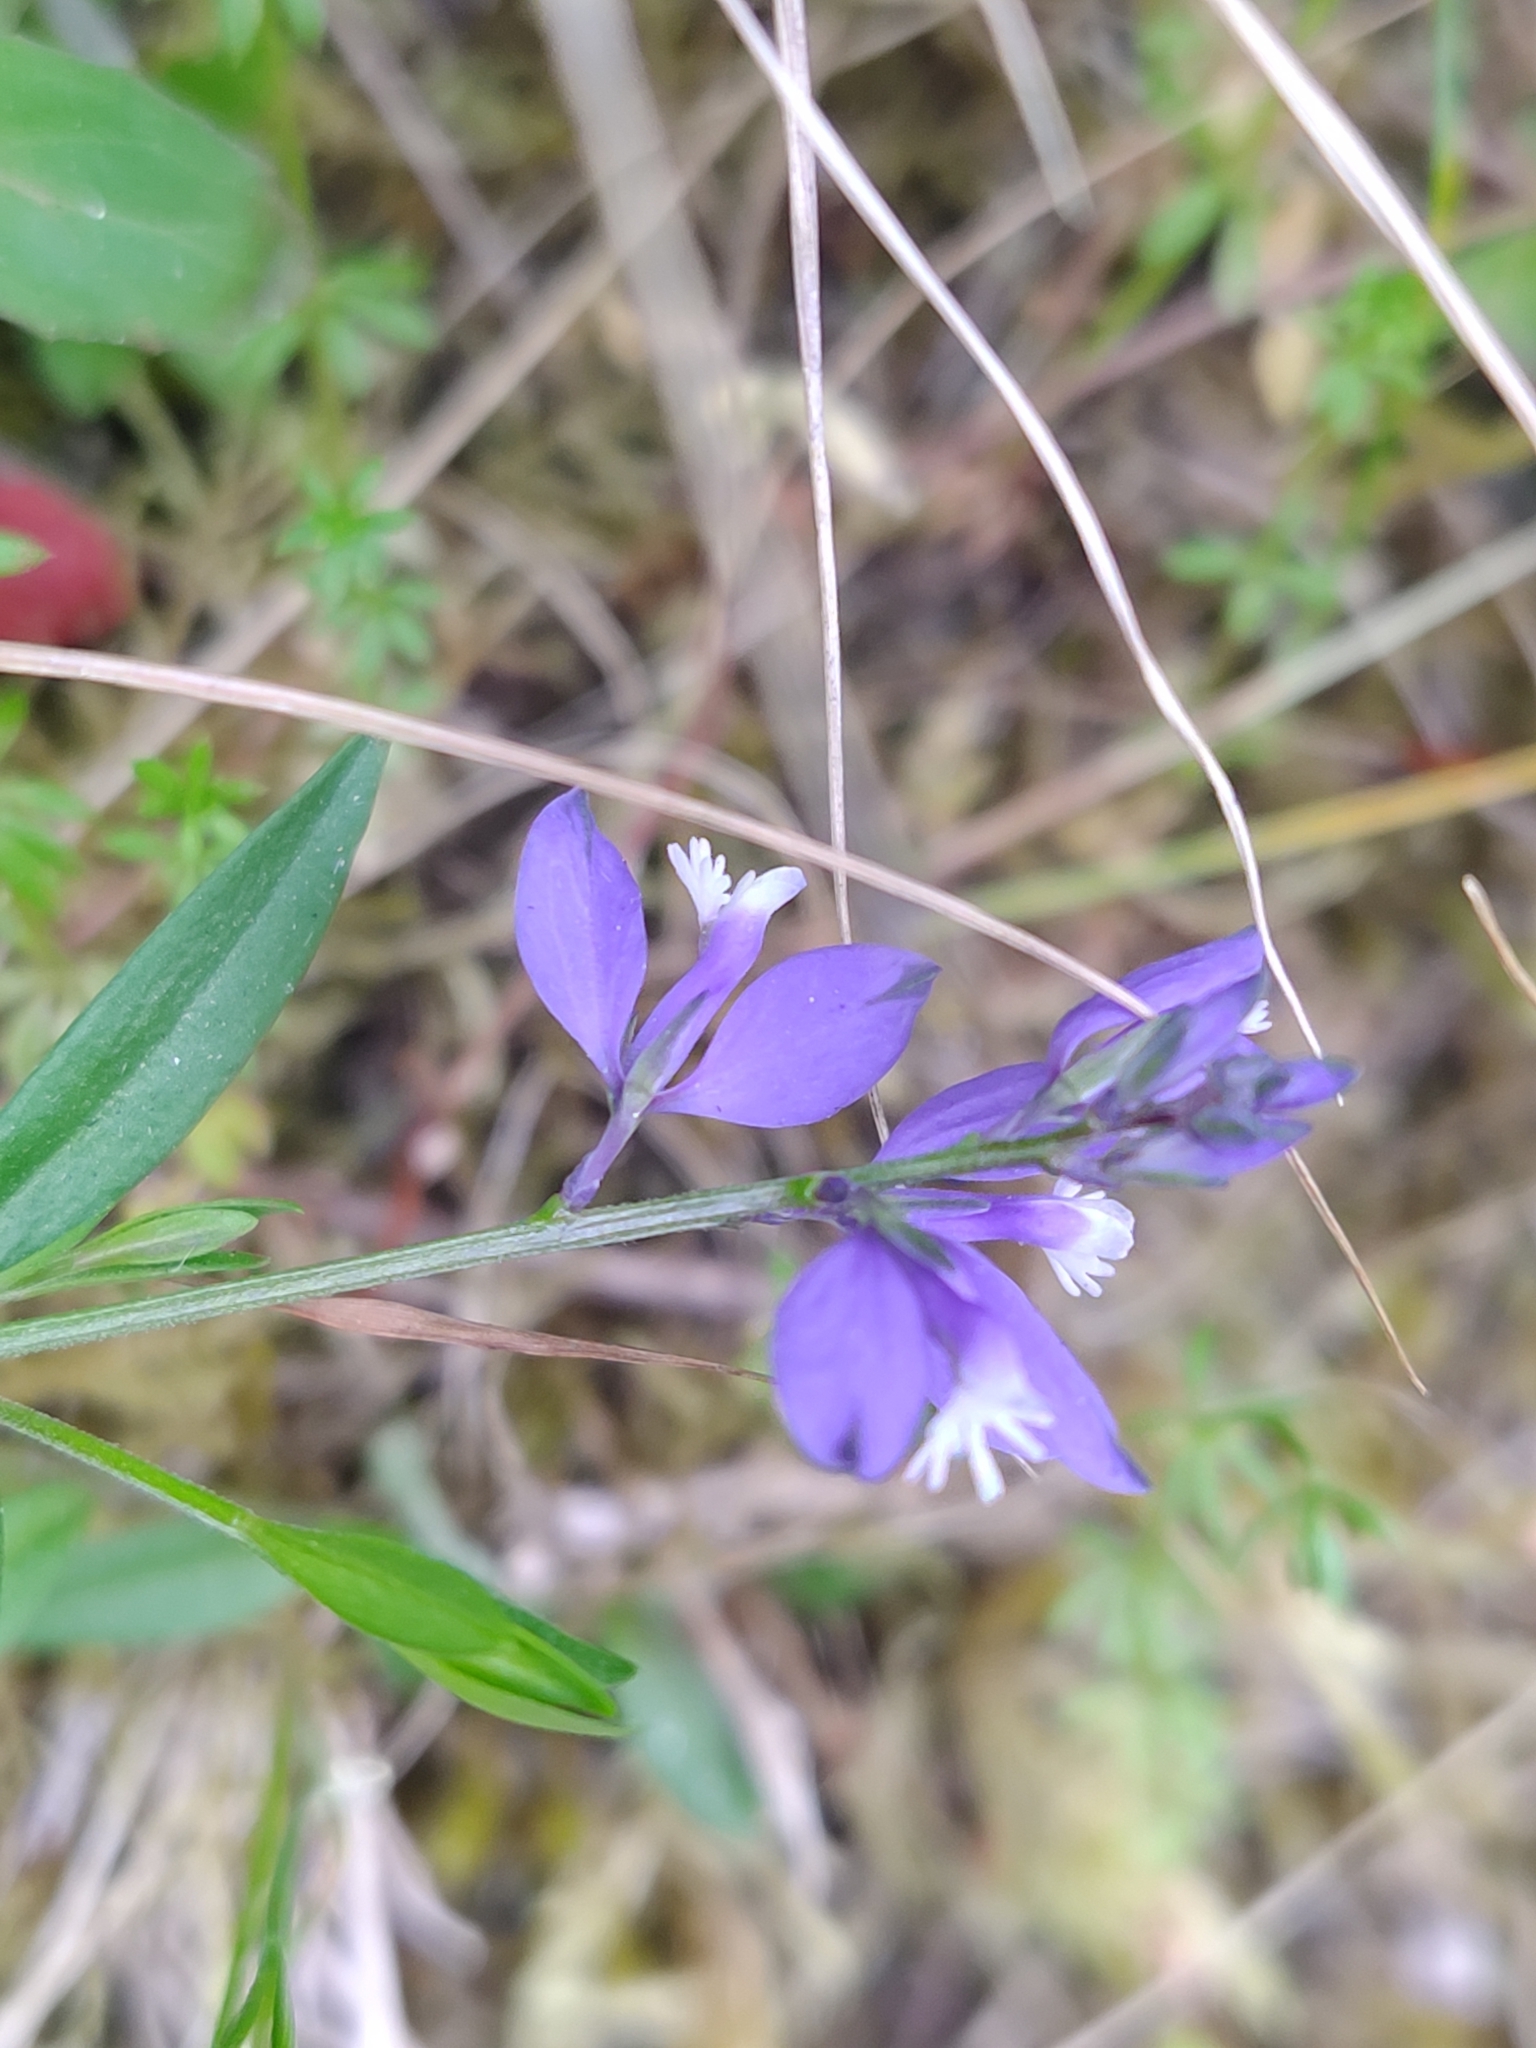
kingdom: Plantae
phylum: Tracheophyta
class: Magnoliopsida
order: Fabales
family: Polygalaceae
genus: Polygala
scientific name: Polygala vulgaris
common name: Common milkwort
